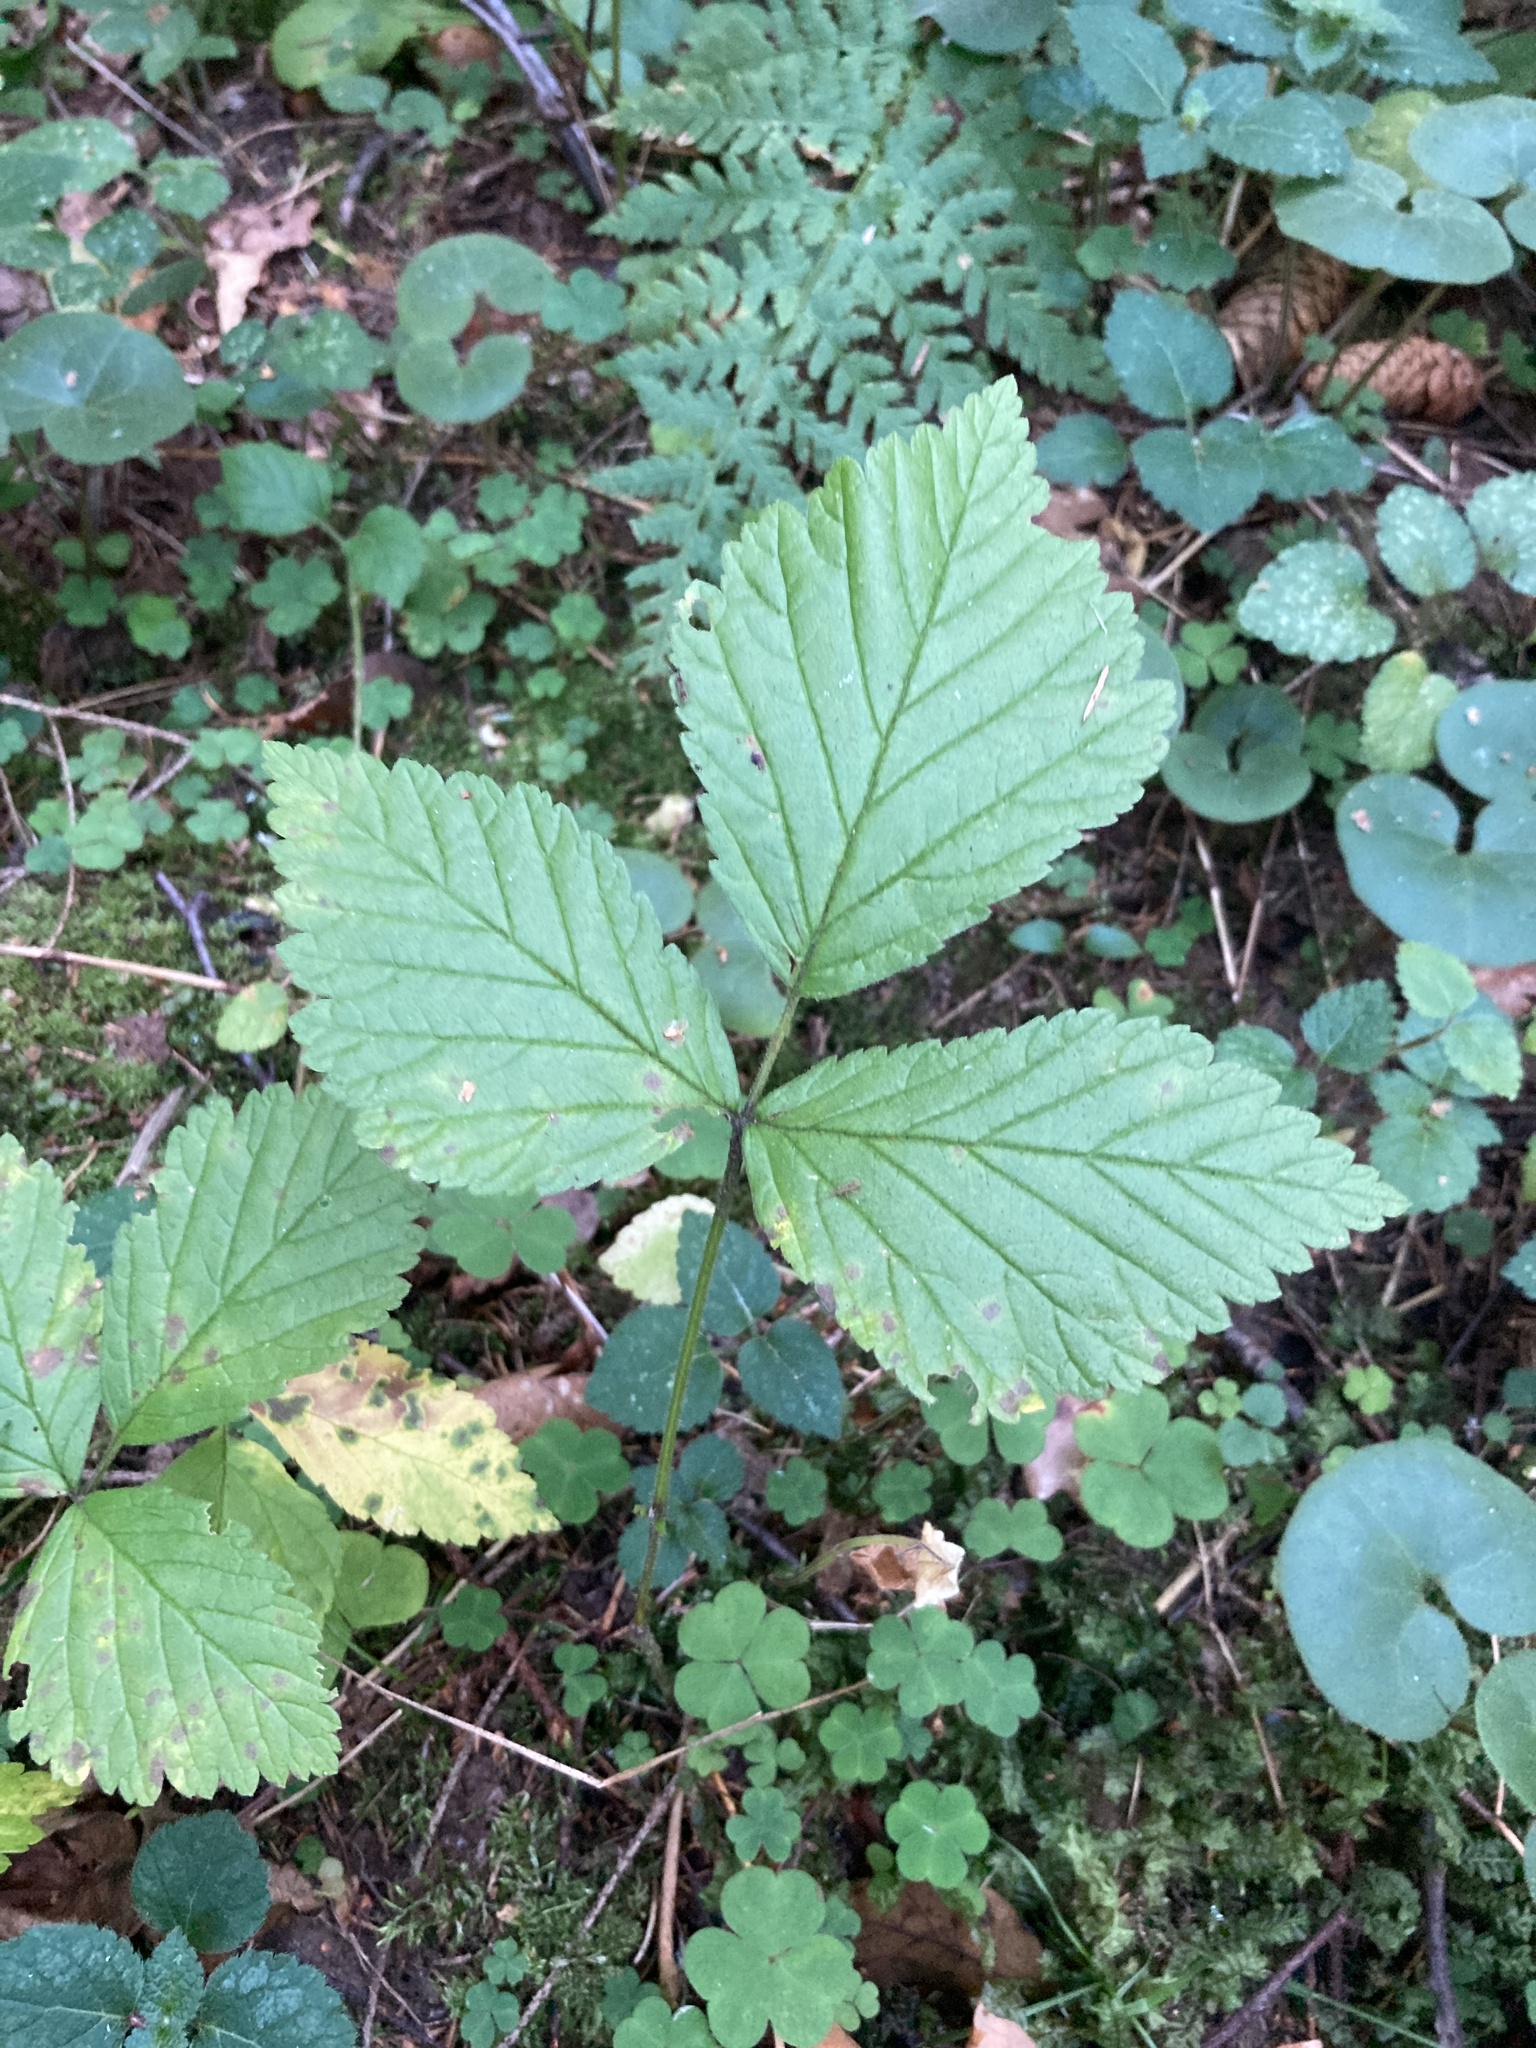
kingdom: Plantae
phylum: Tracheophyta
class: Magnoliopsida
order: Rosales
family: Rosaceae
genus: Rubus
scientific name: Rubus saxatilis
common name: Stone bramble
